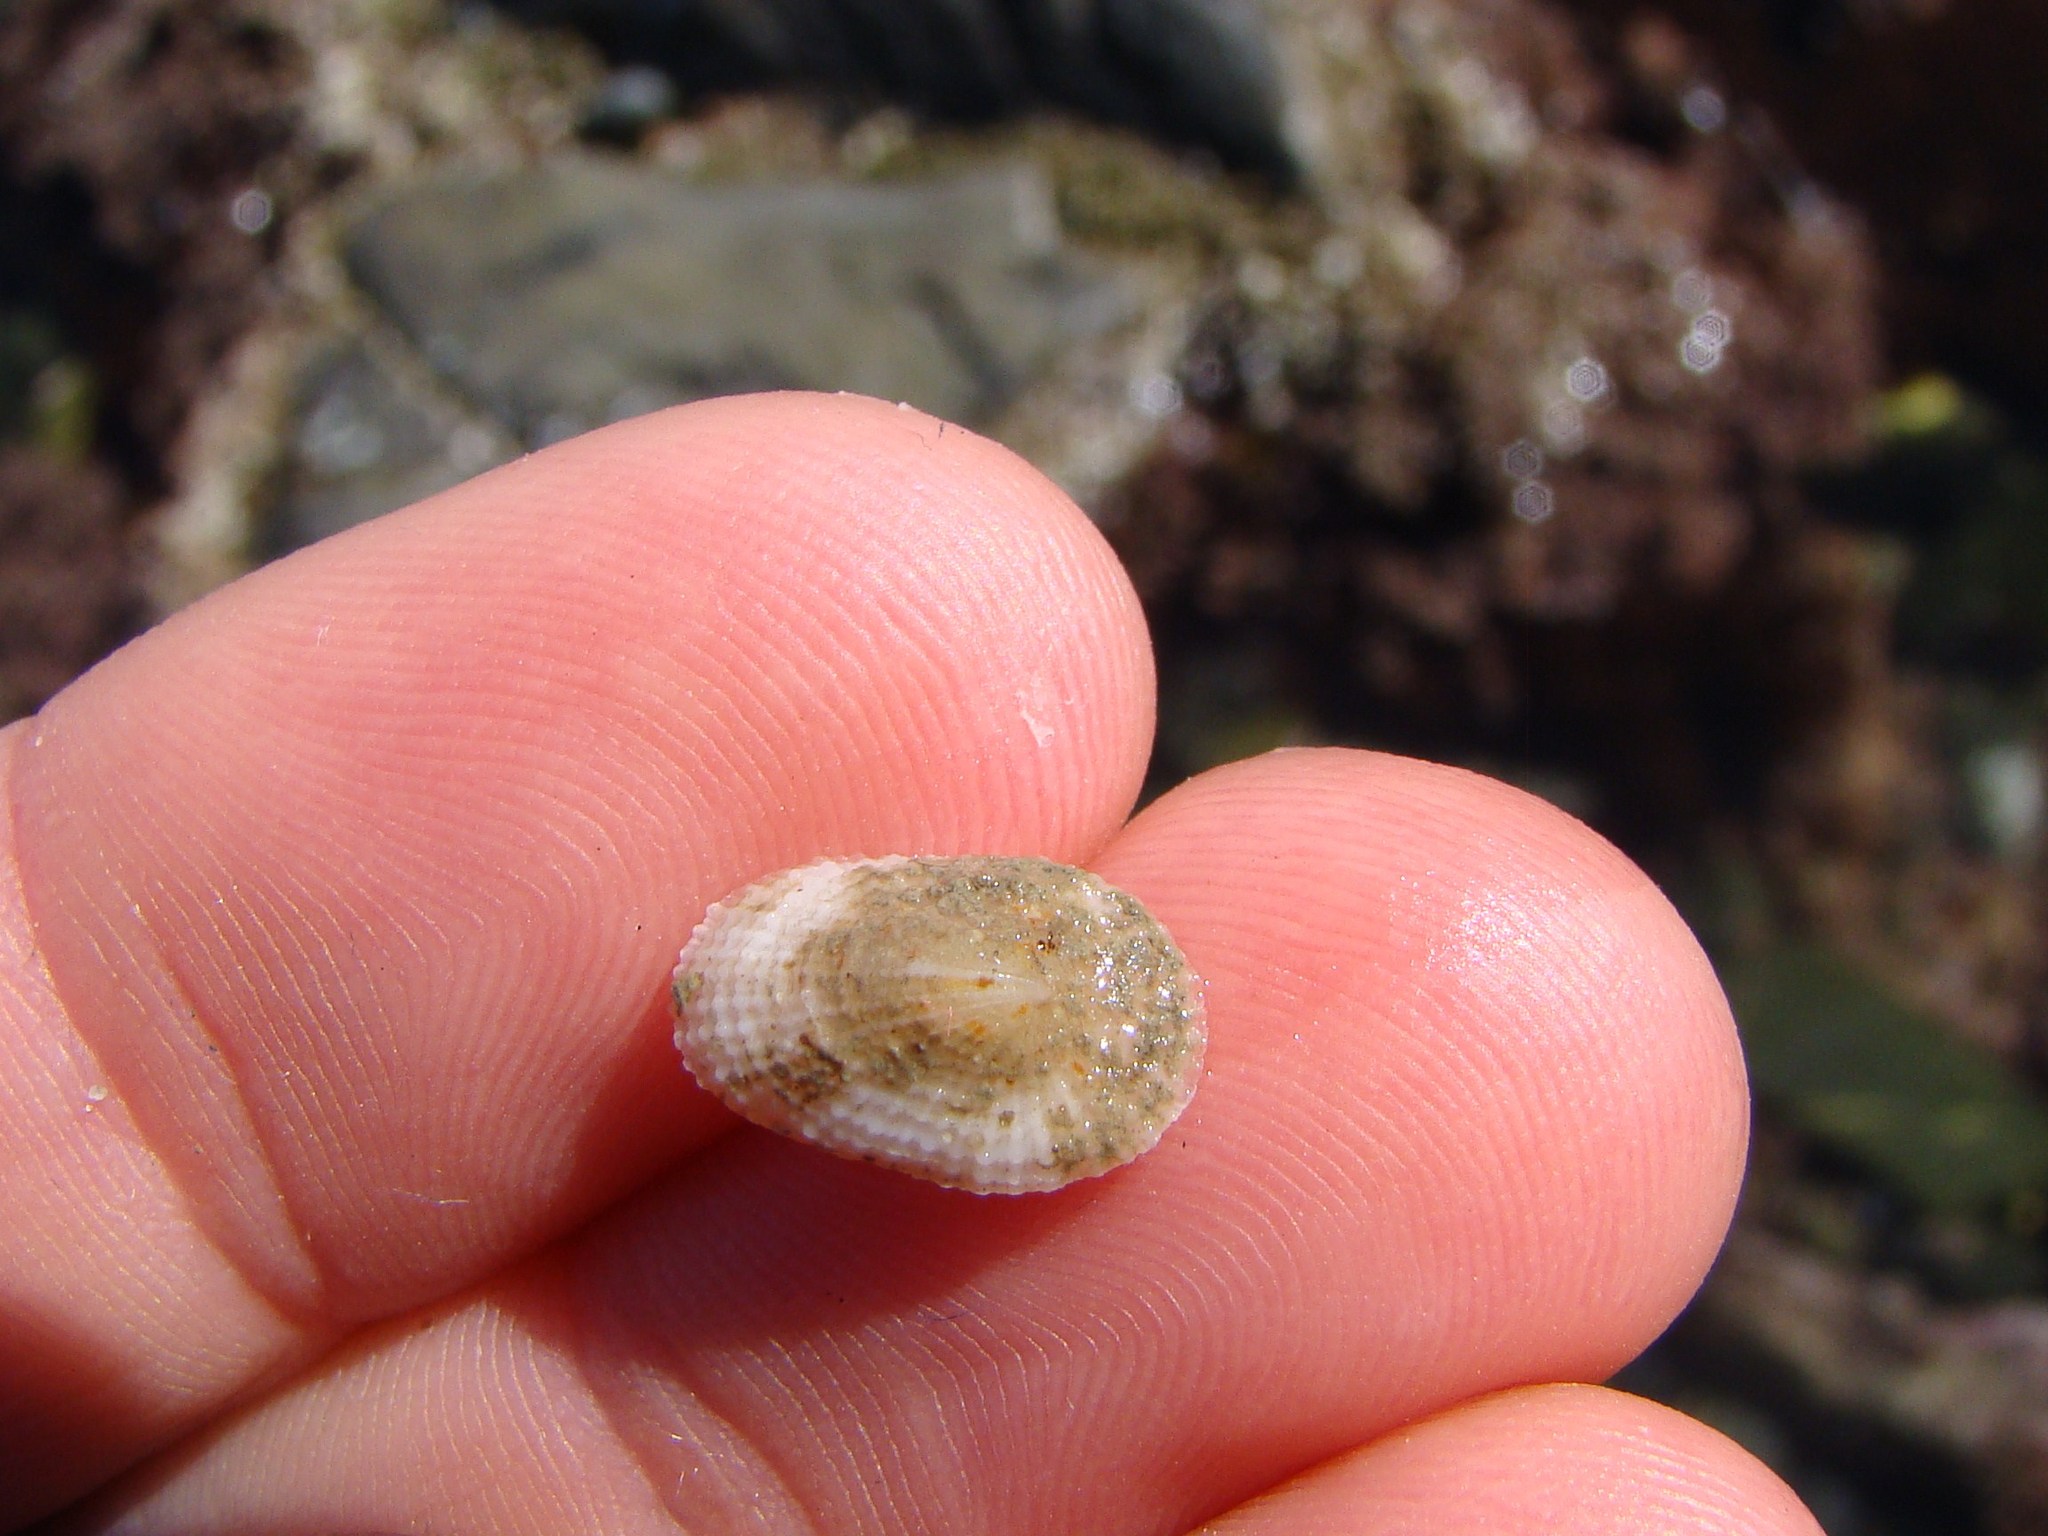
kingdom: Animalia
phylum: Mollusca
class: Gastropoda
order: Lepetellida
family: Fissurellidae
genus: Tugali
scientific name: Tugali suteri
